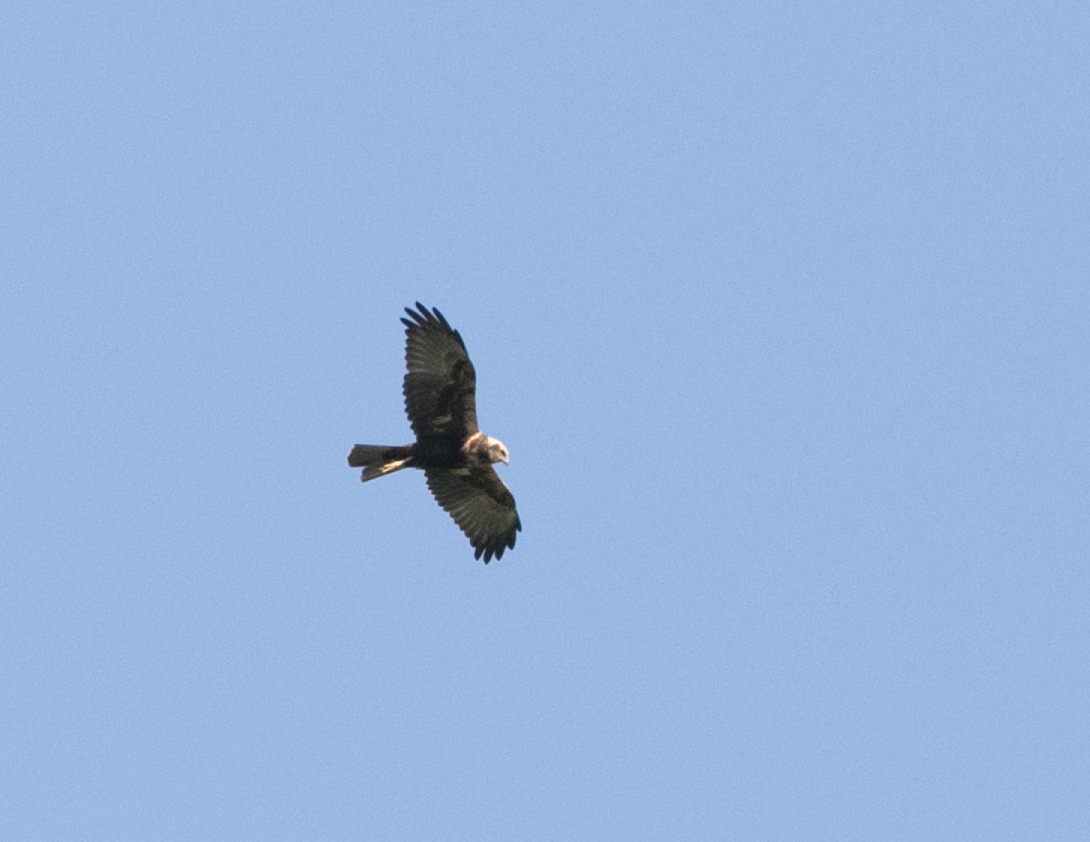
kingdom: Animalia
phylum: Chordata
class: Aves
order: Accipitriformes
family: Accipitridae
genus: Circus
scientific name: Circus aeruginosus
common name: Western marsh harrier
